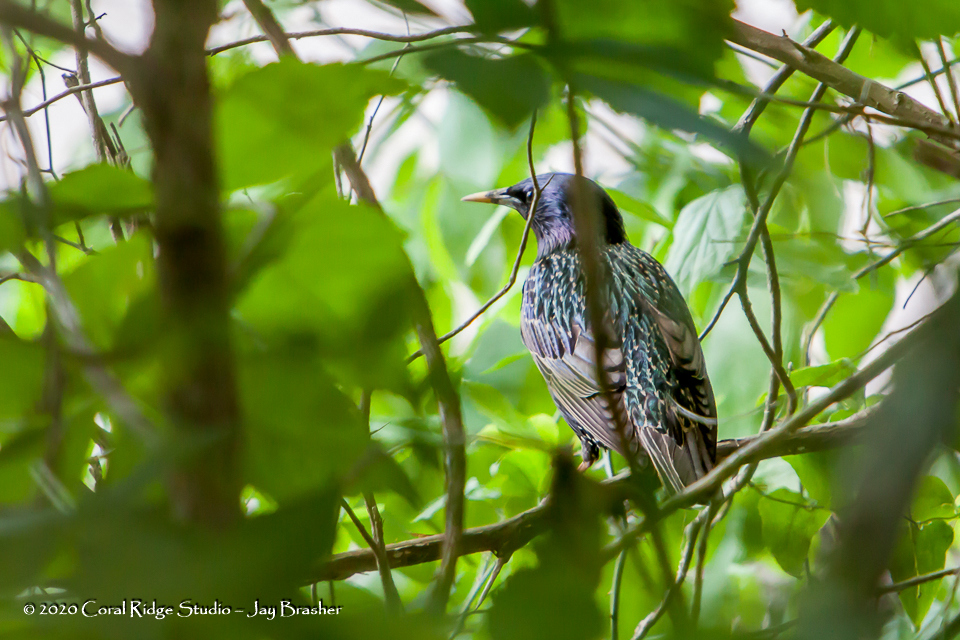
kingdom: Animalia
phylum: Chordata
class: Aves
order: Passeriformes
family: Sturnidae
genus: Sturnus
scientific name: Sturnus vulgaris
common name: Common starling
